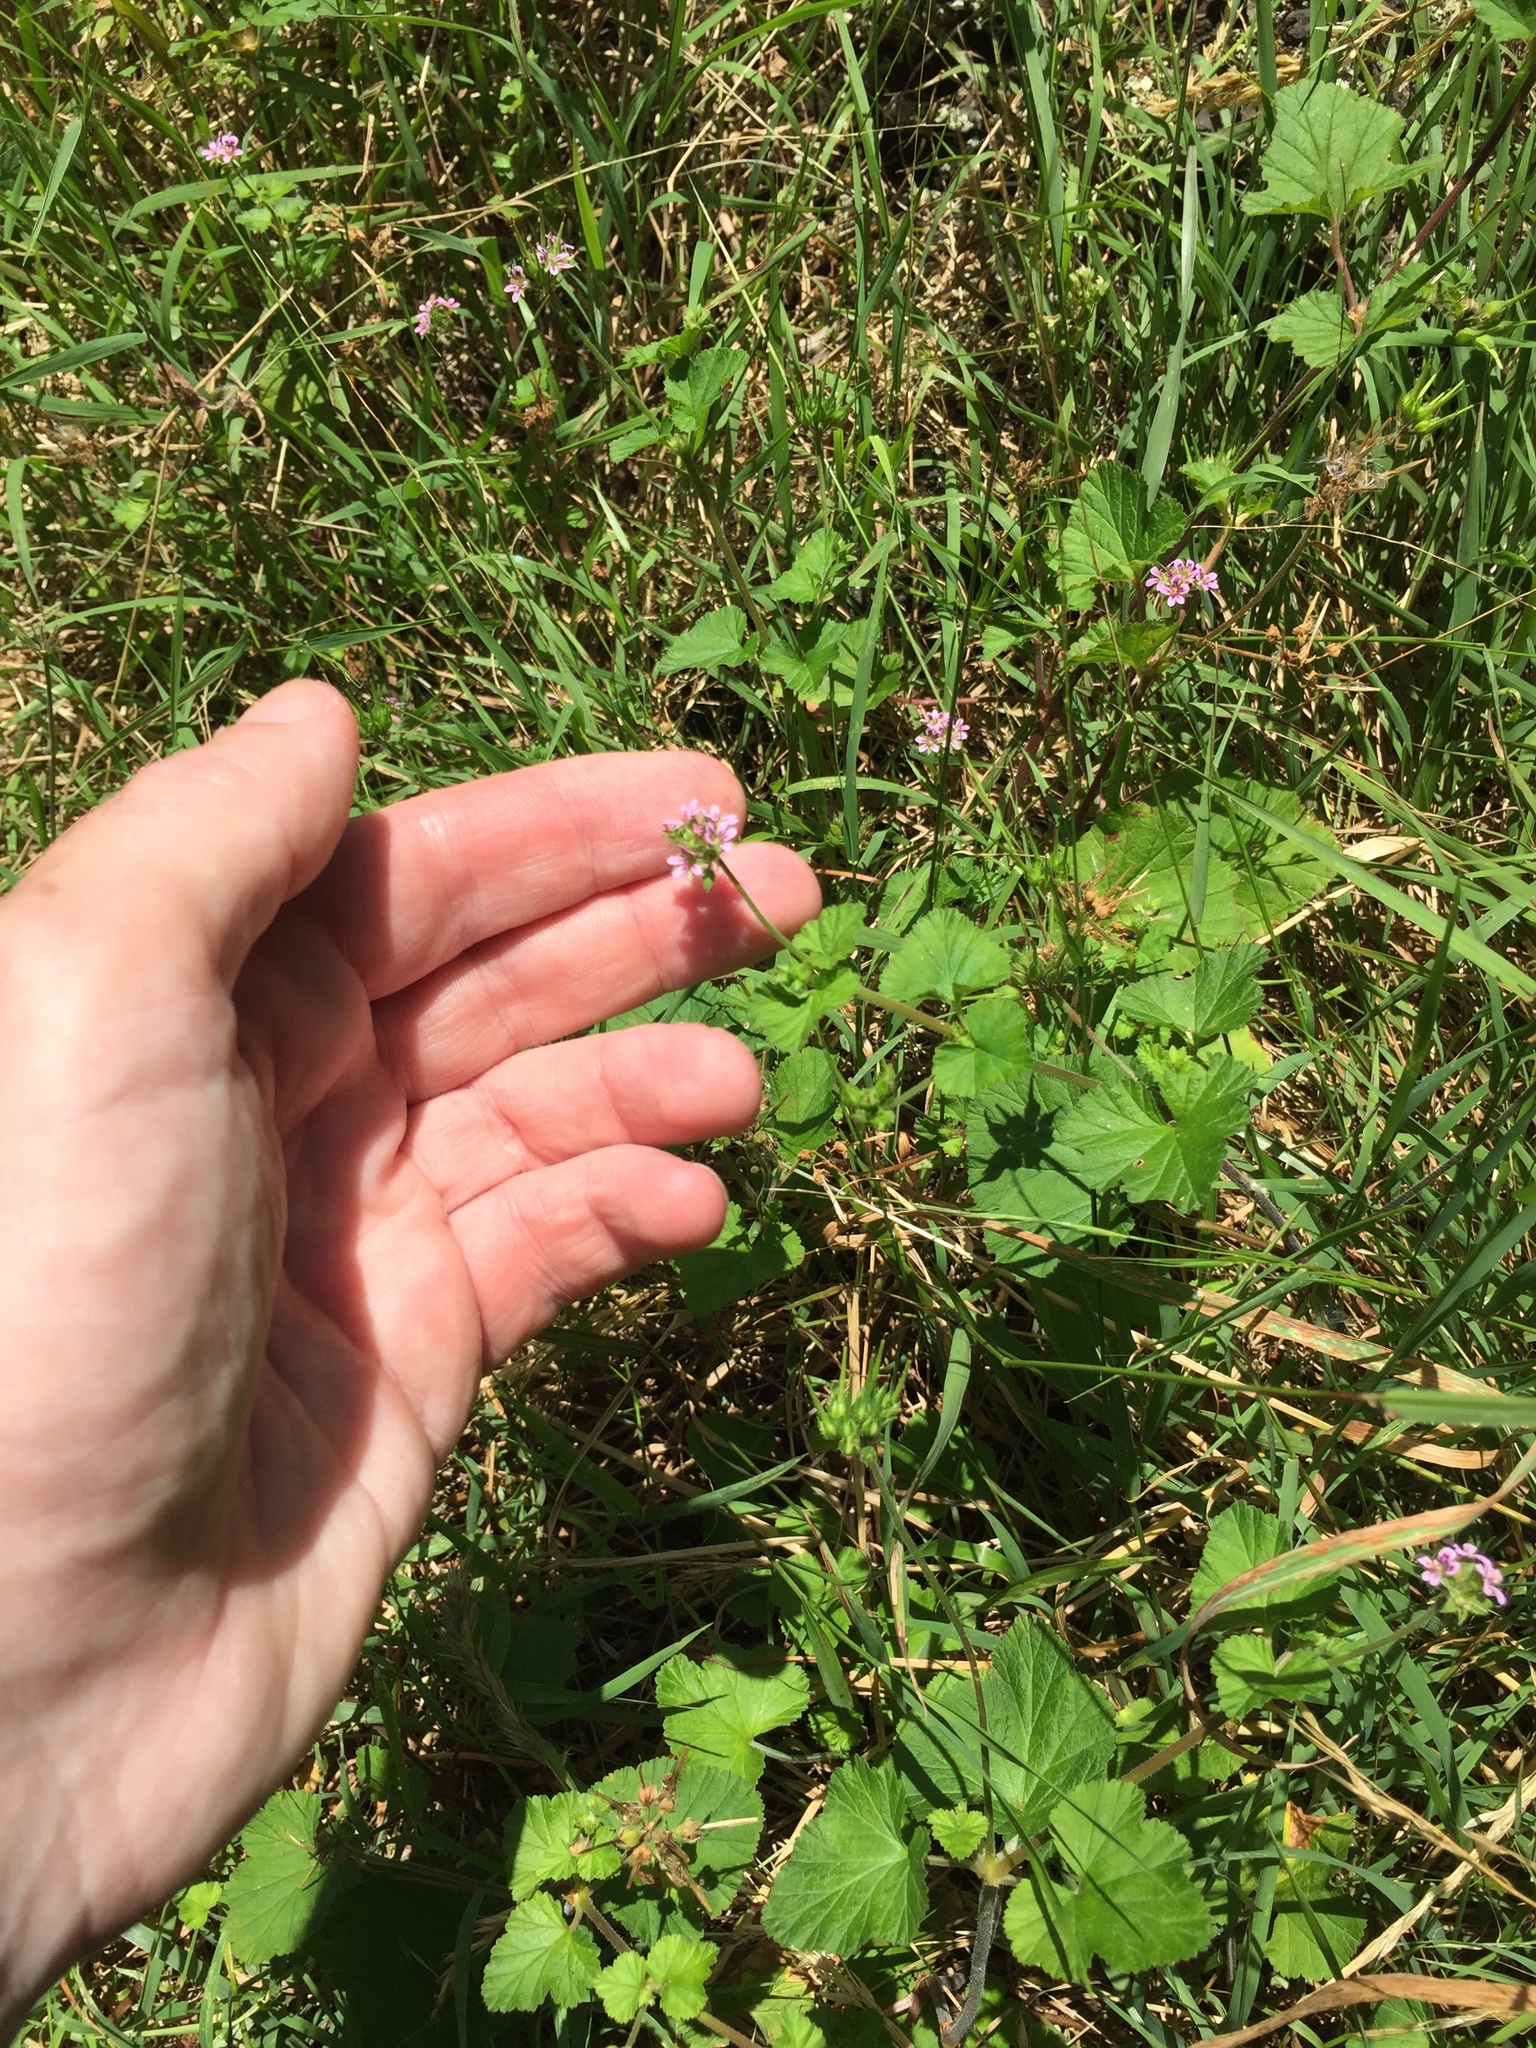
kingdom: Plantae
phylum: Tracheophyta
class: Magnoliopsida
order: Geraniales
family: Geraniaceae
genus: Pelargonium
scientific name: Pelargonium inodorum
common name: Kopata geranium
